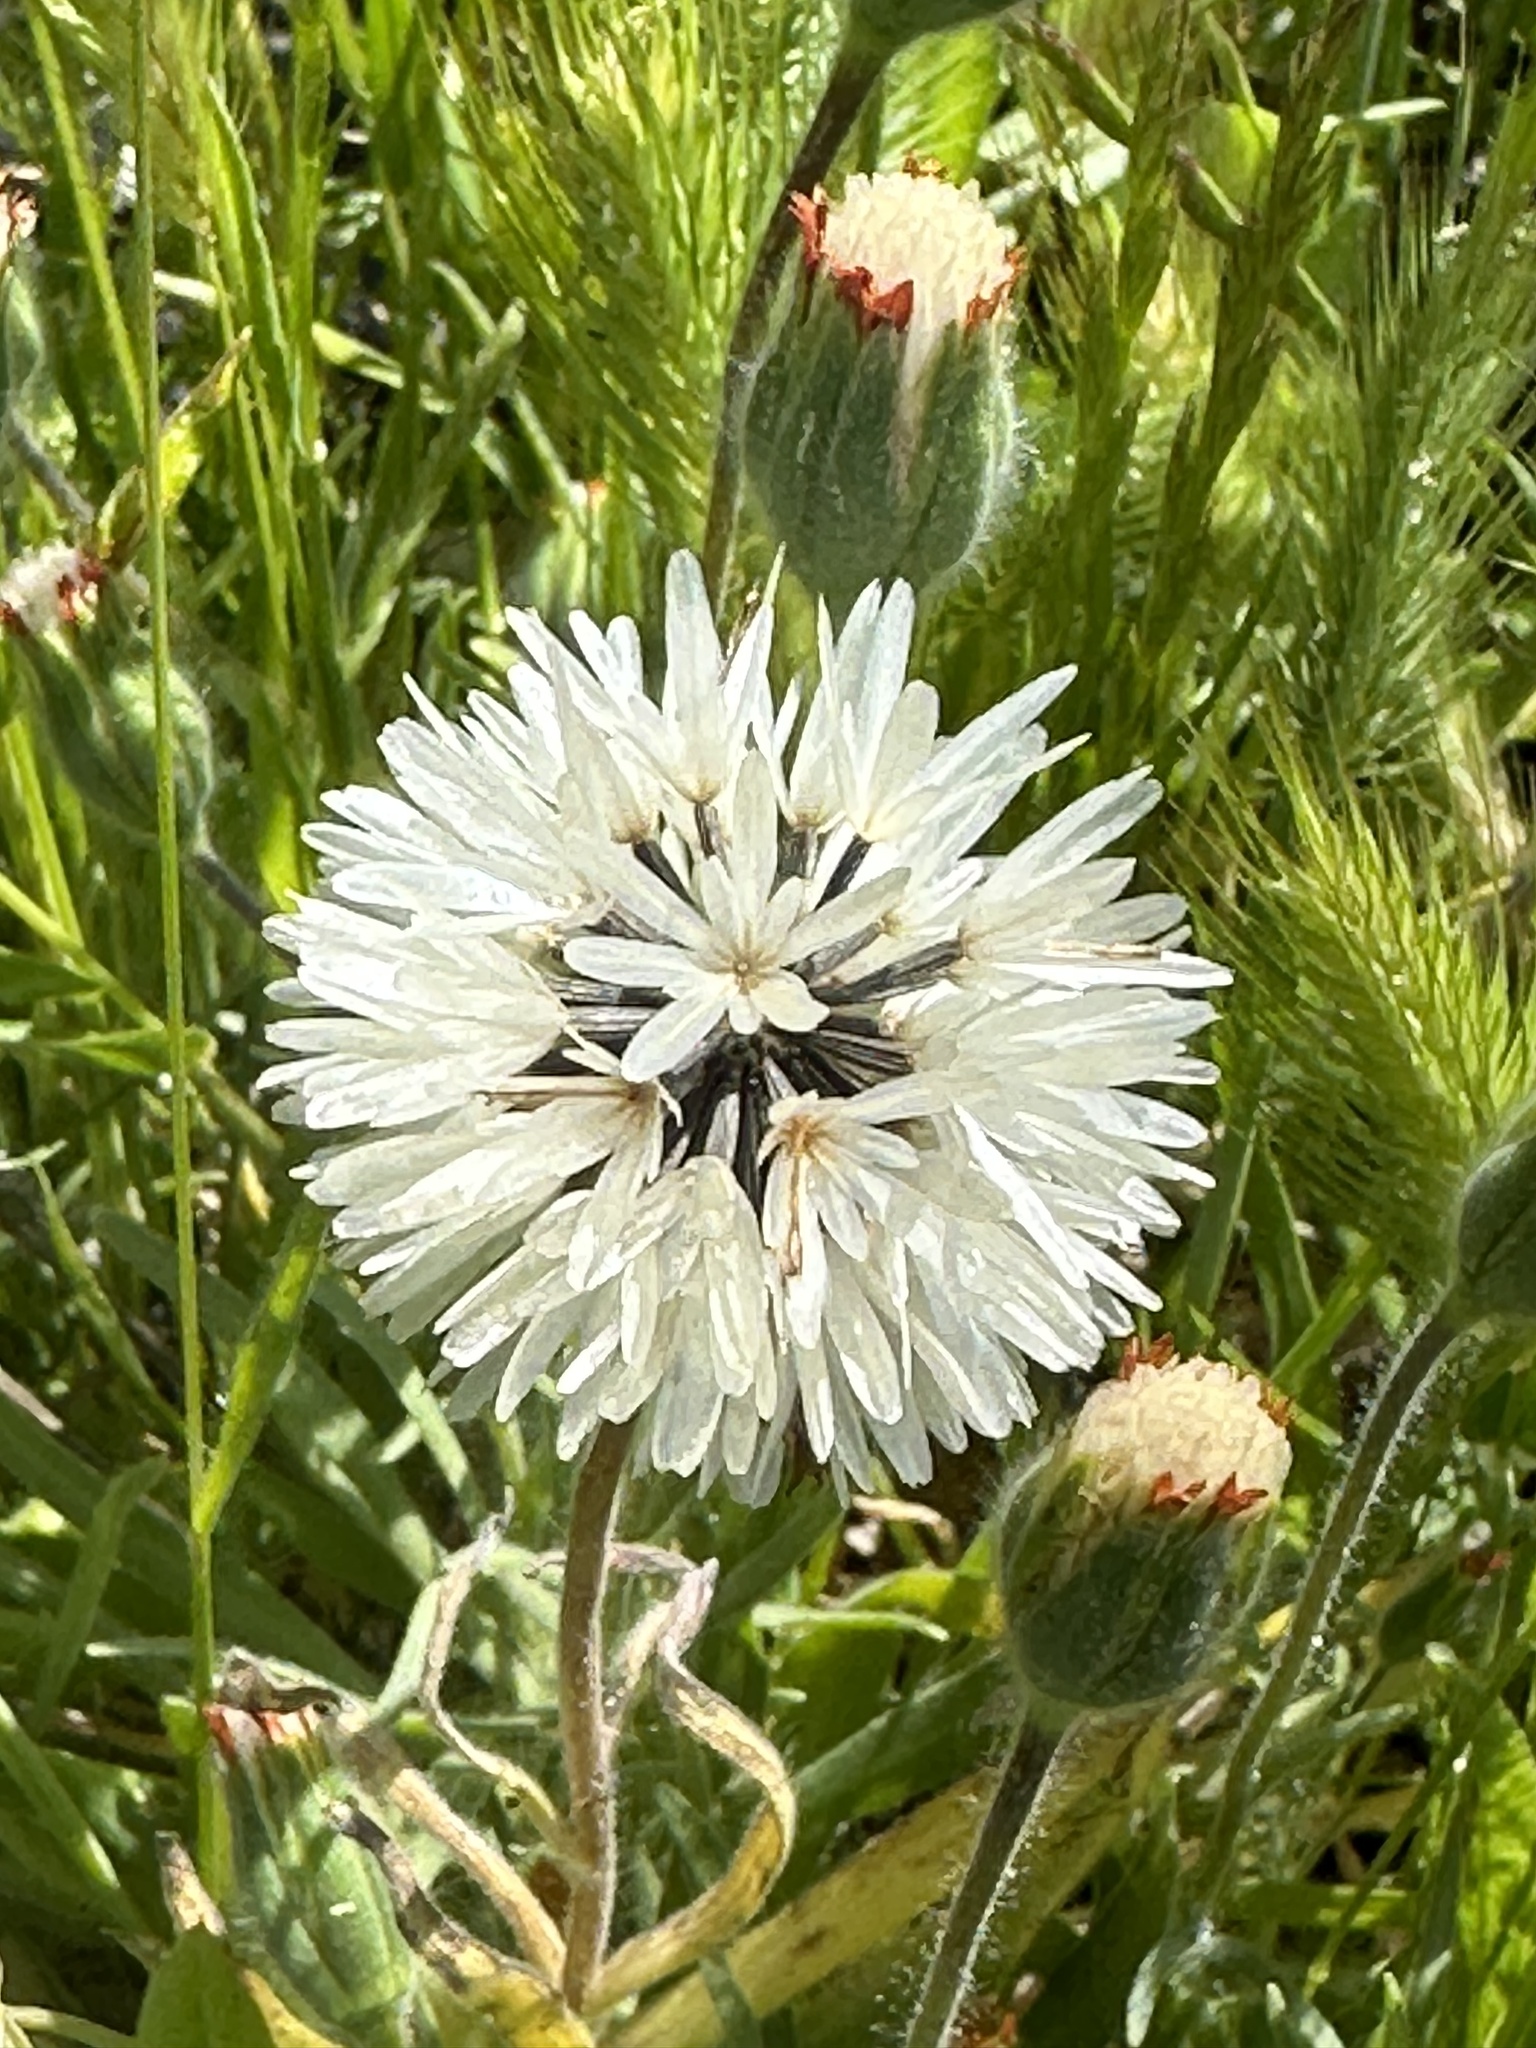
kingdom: Plantae
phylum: Tracheophyta
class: Magnoliopsida
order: Asterales
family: Asteraceae
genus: Achyrachaena
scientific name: Achyrachaena mollis
